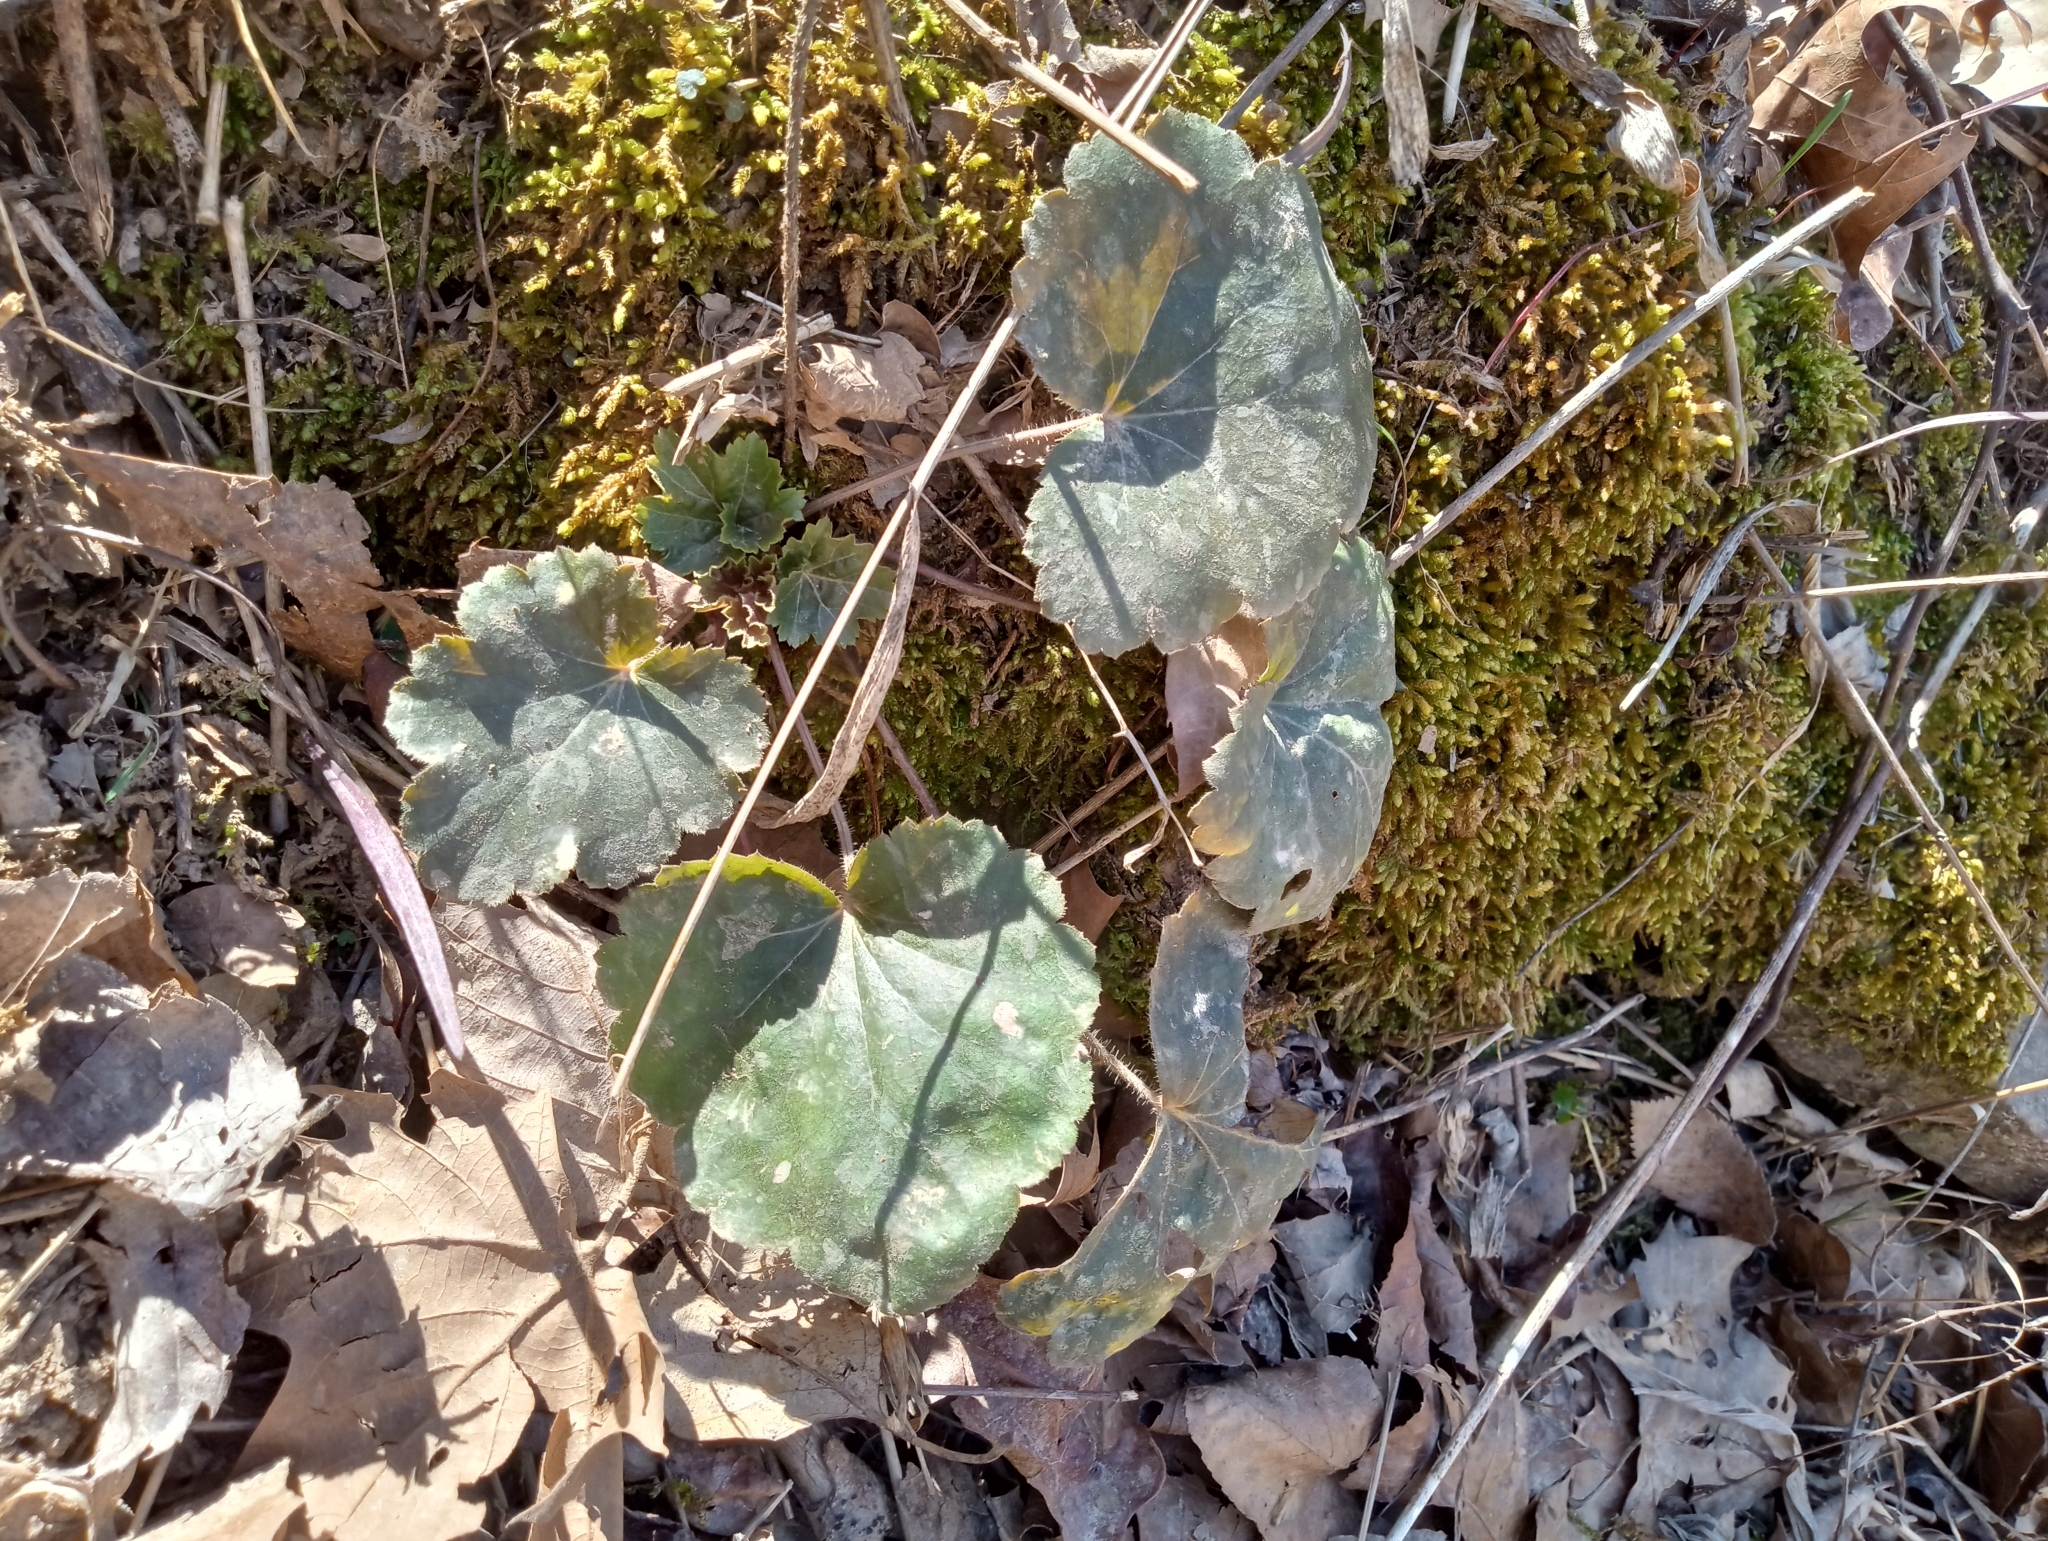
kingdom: Plantae
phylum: Tracheophyta
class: Magnoliopsida
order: Saxifragales
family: Saxifragaceae
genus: Heuchera
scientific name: Heuchera americana
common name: Alumroot
